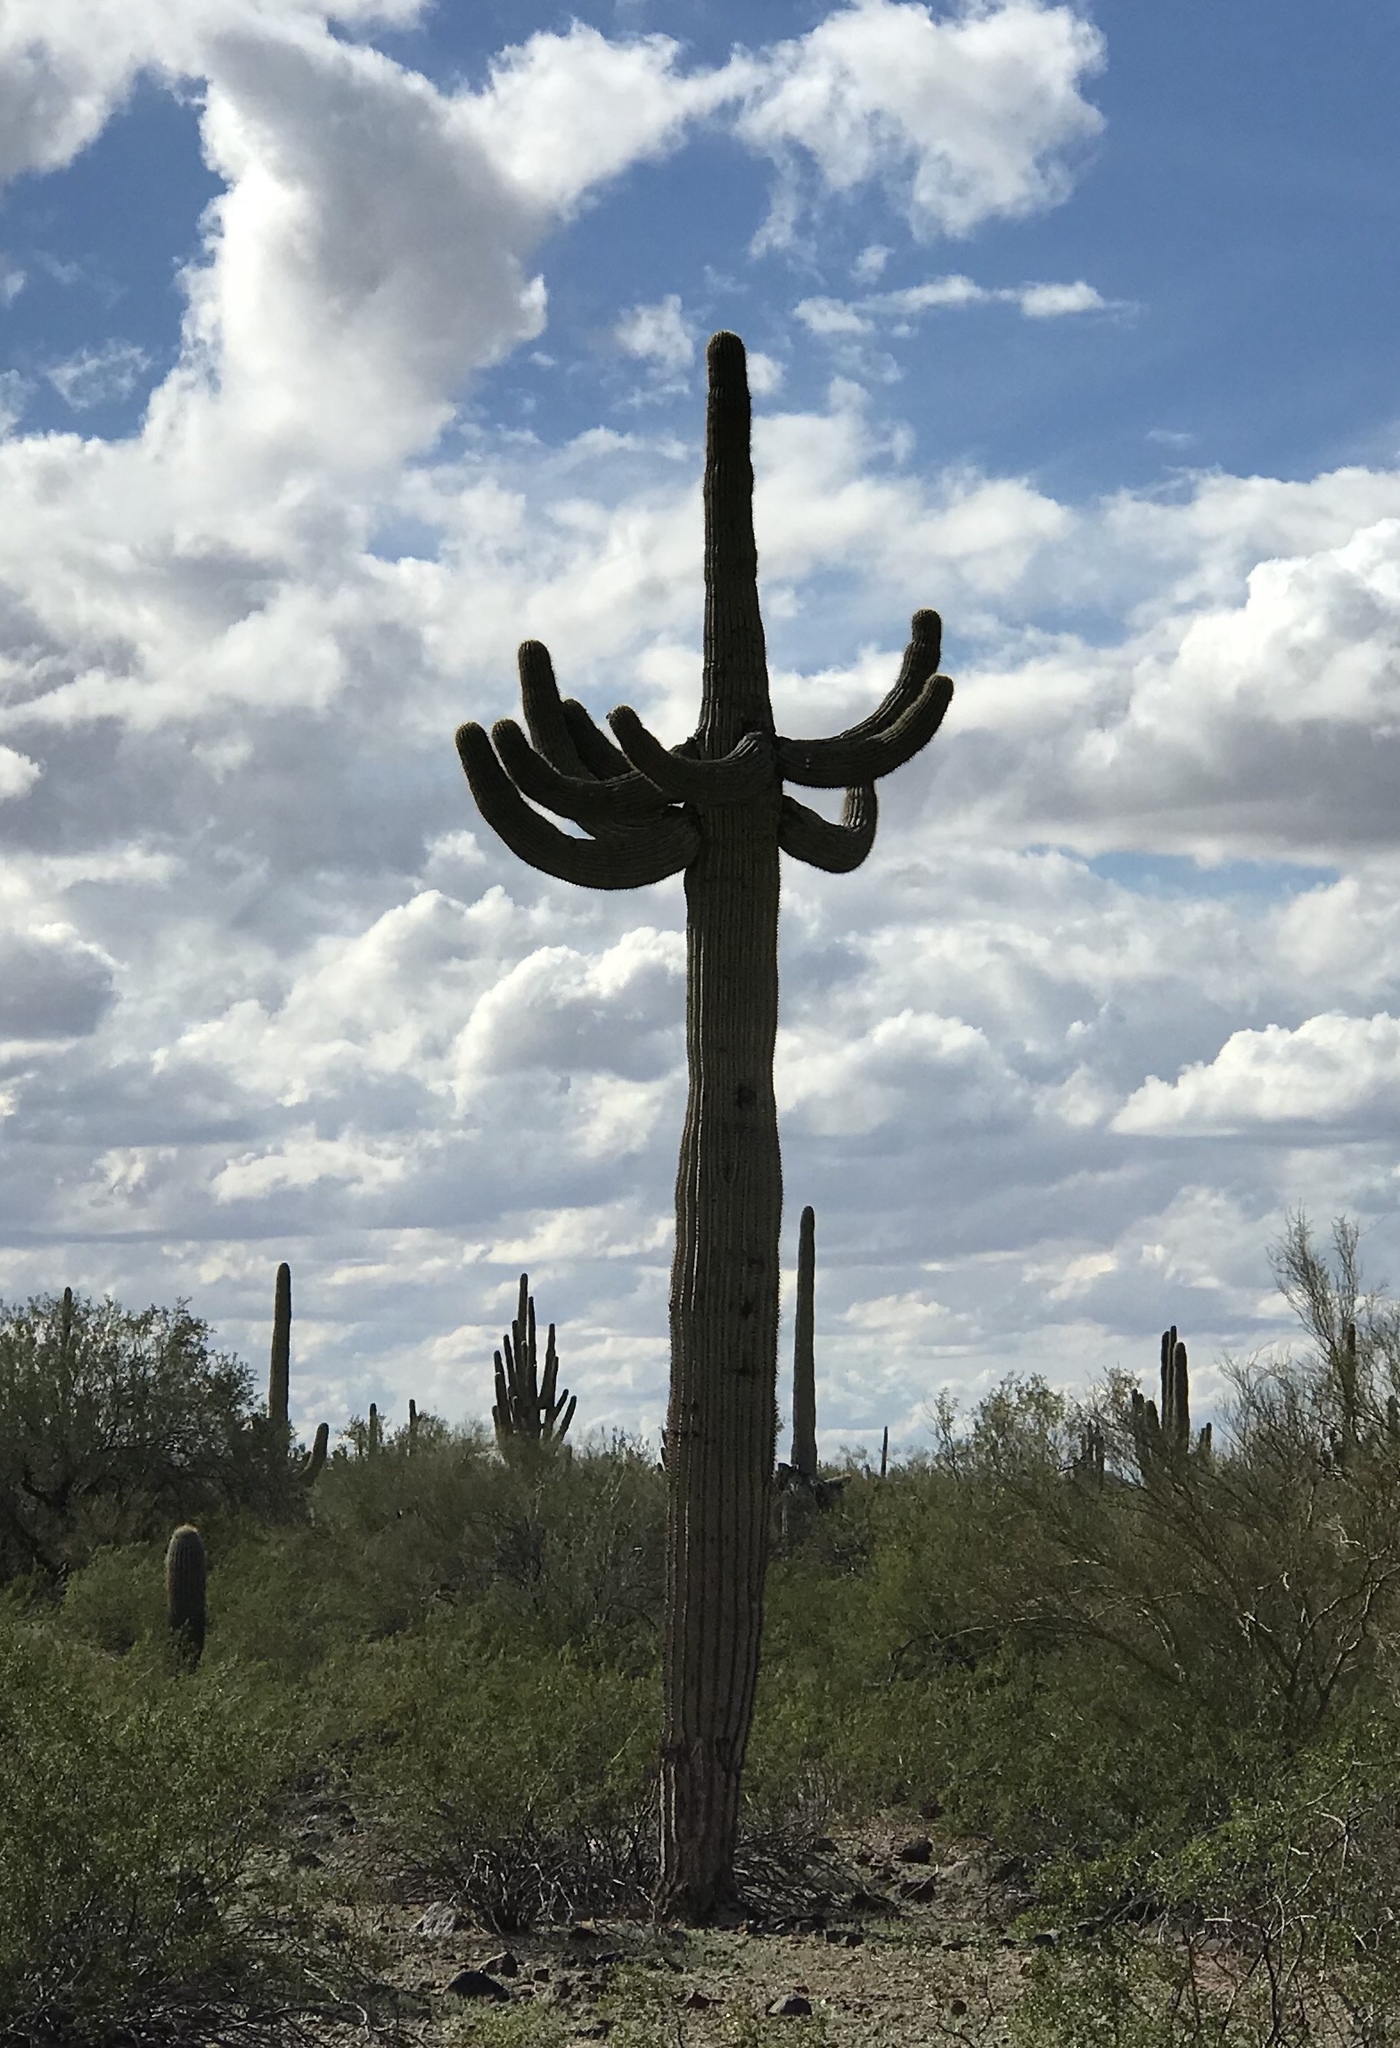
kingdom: Plantae
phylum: Tracheophyta
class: Magnoliopsida
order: Caryophyllales
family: Cactaceae
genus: Carnegiea
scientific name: Carnegiea gigantea
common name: Saguaro
